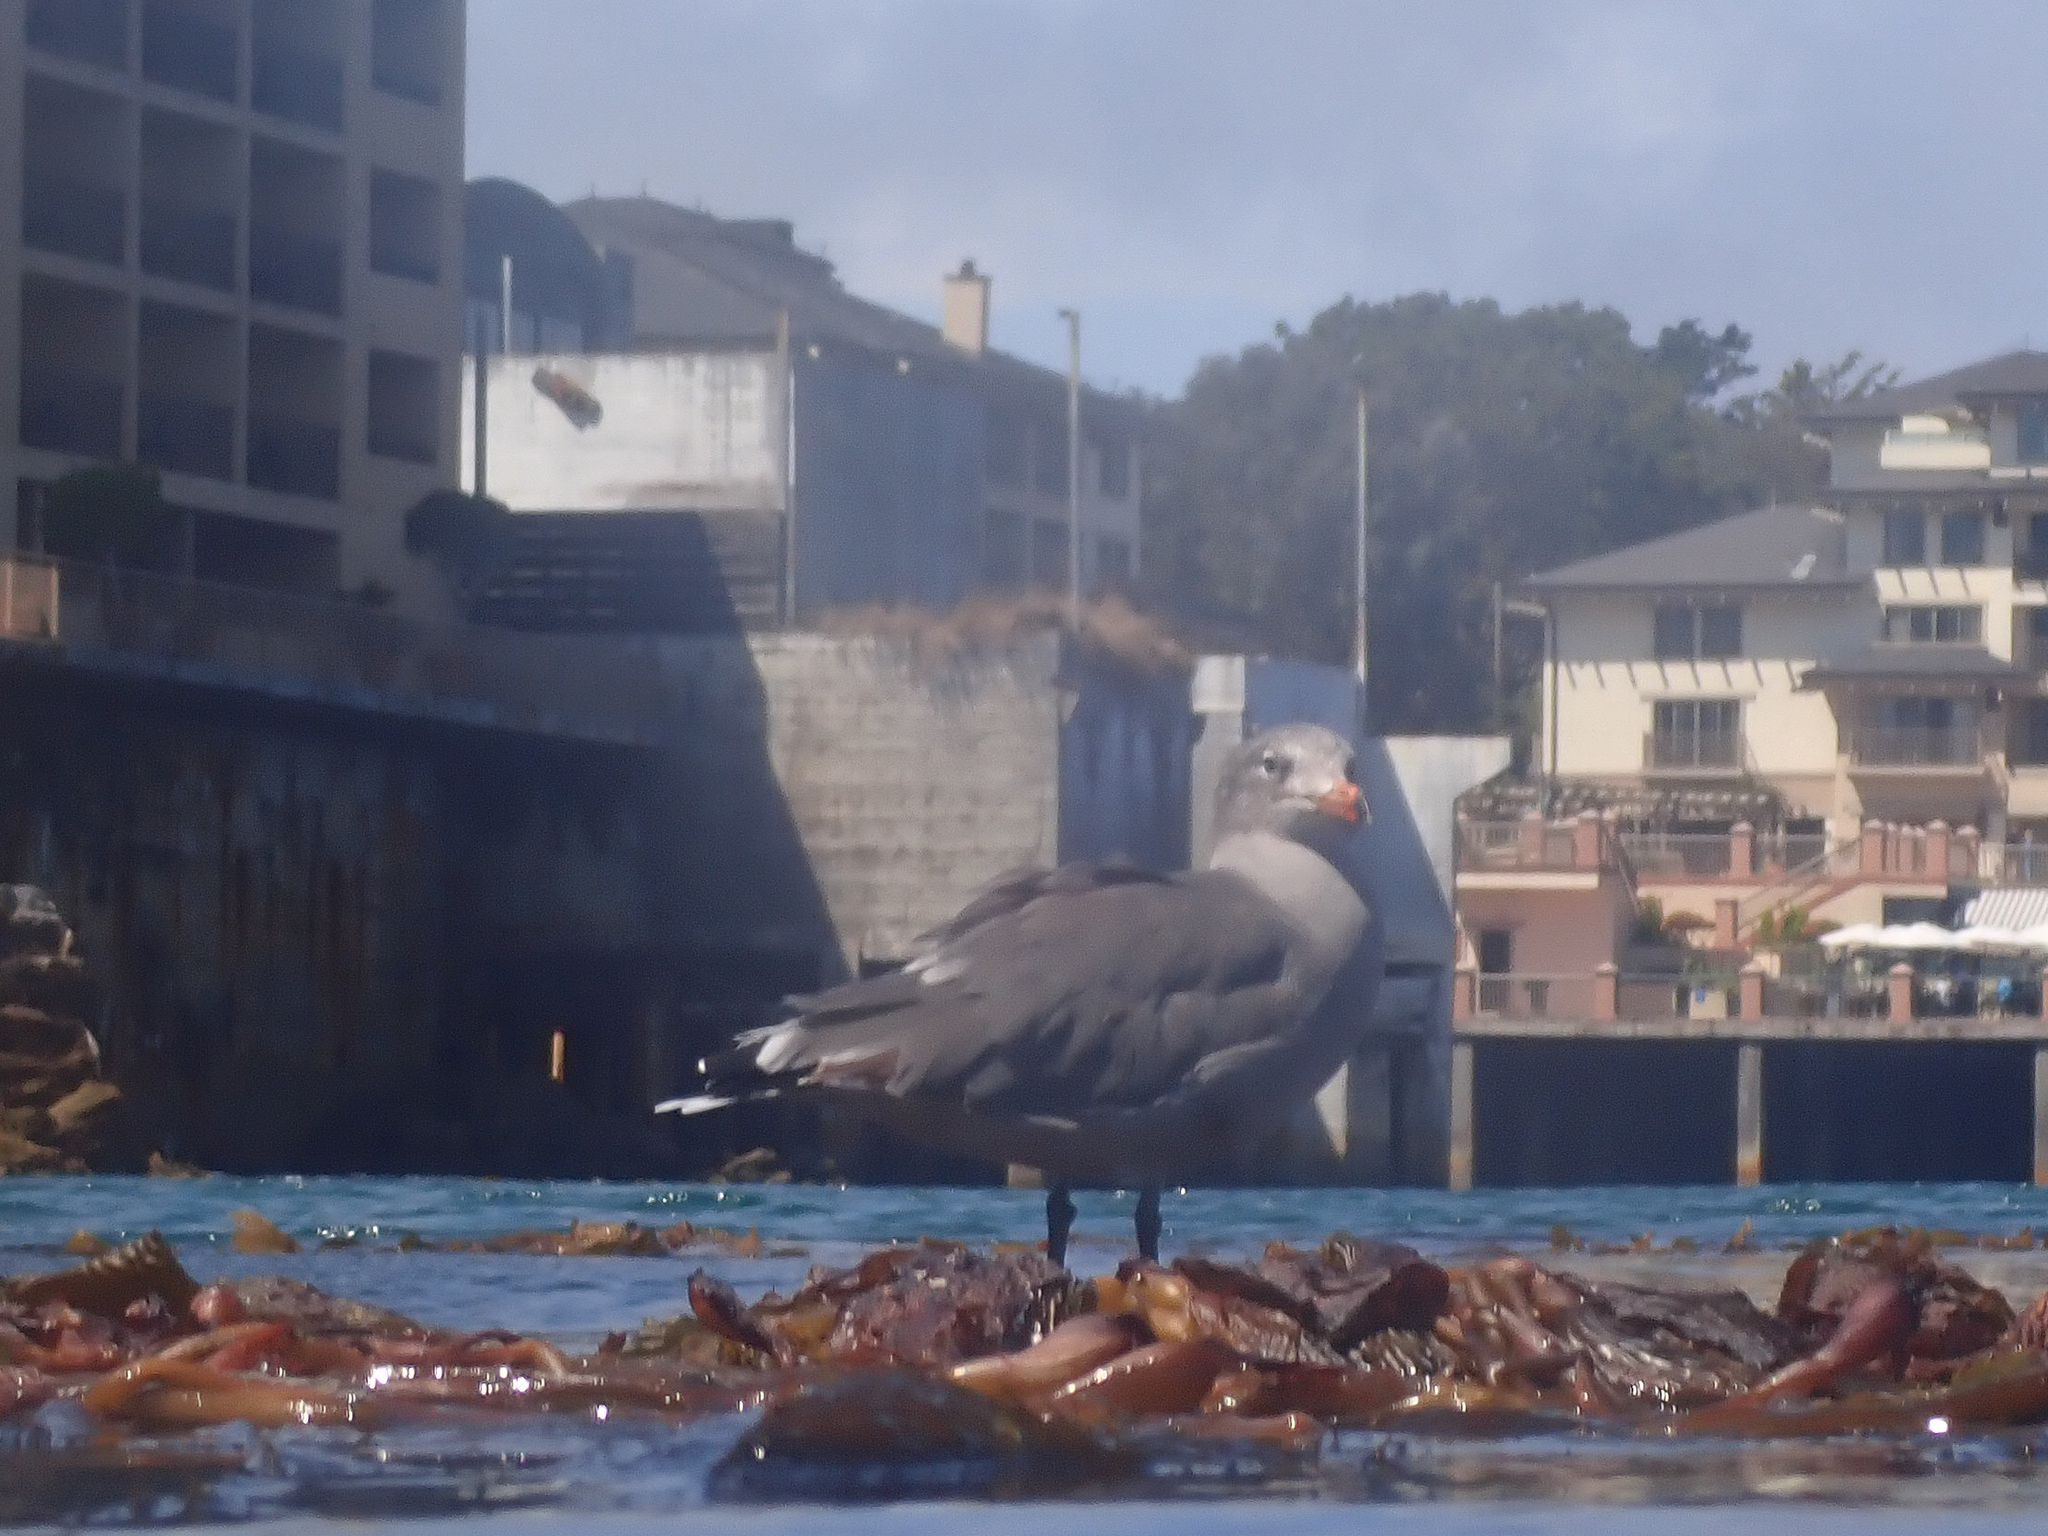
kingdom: Animalia
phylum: Chordata
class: Aves
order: Charadriiformes
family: Laridae
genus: Larus
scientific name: Larus heermanni
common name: Heermann's gull
